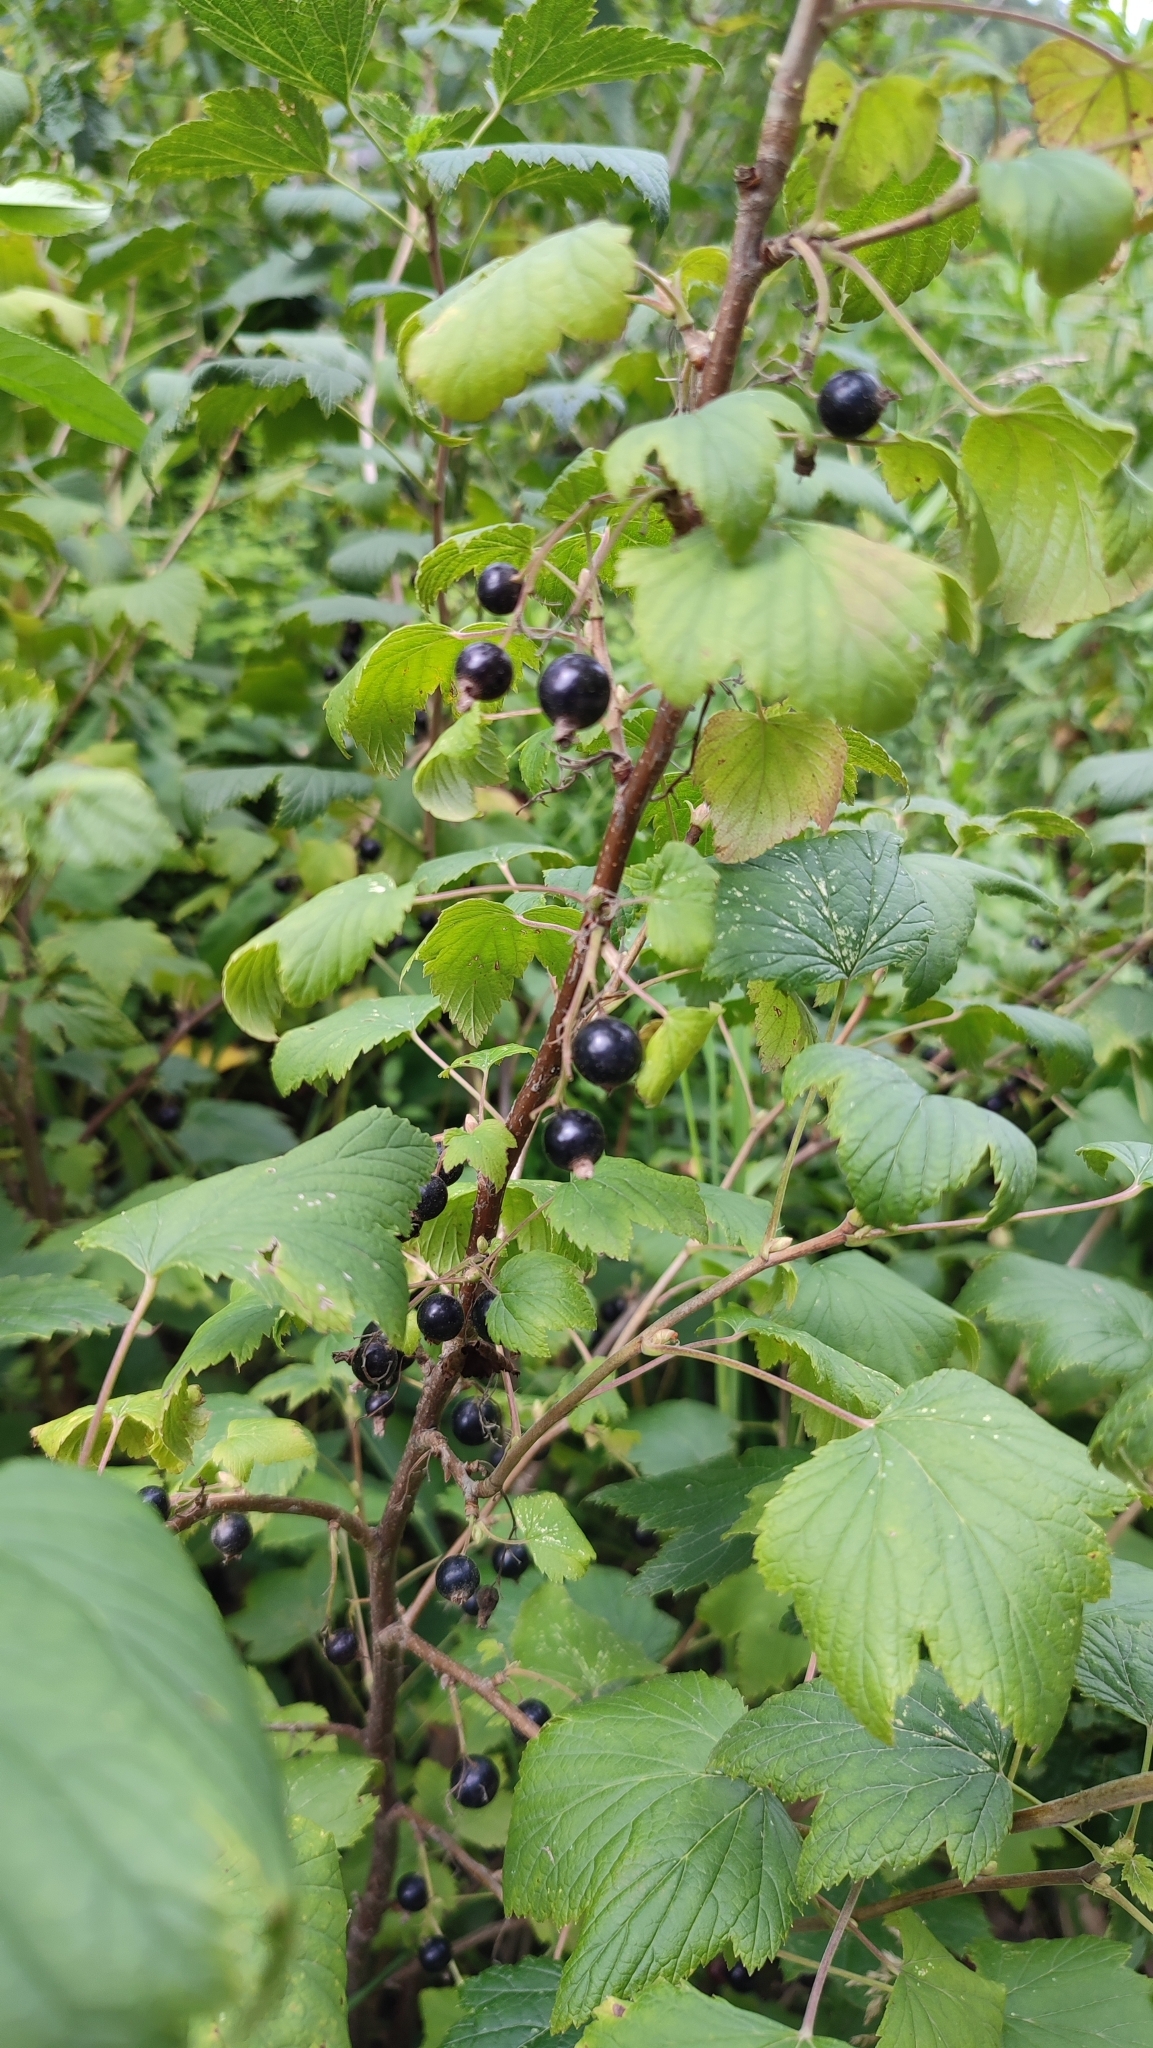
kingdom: Plantae
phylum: Tracheophyta
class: Magnoliopsida
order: Saxifragales
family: Grossulariaceae
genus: Ribes
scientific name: Ribes nigrum
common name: Black currant
